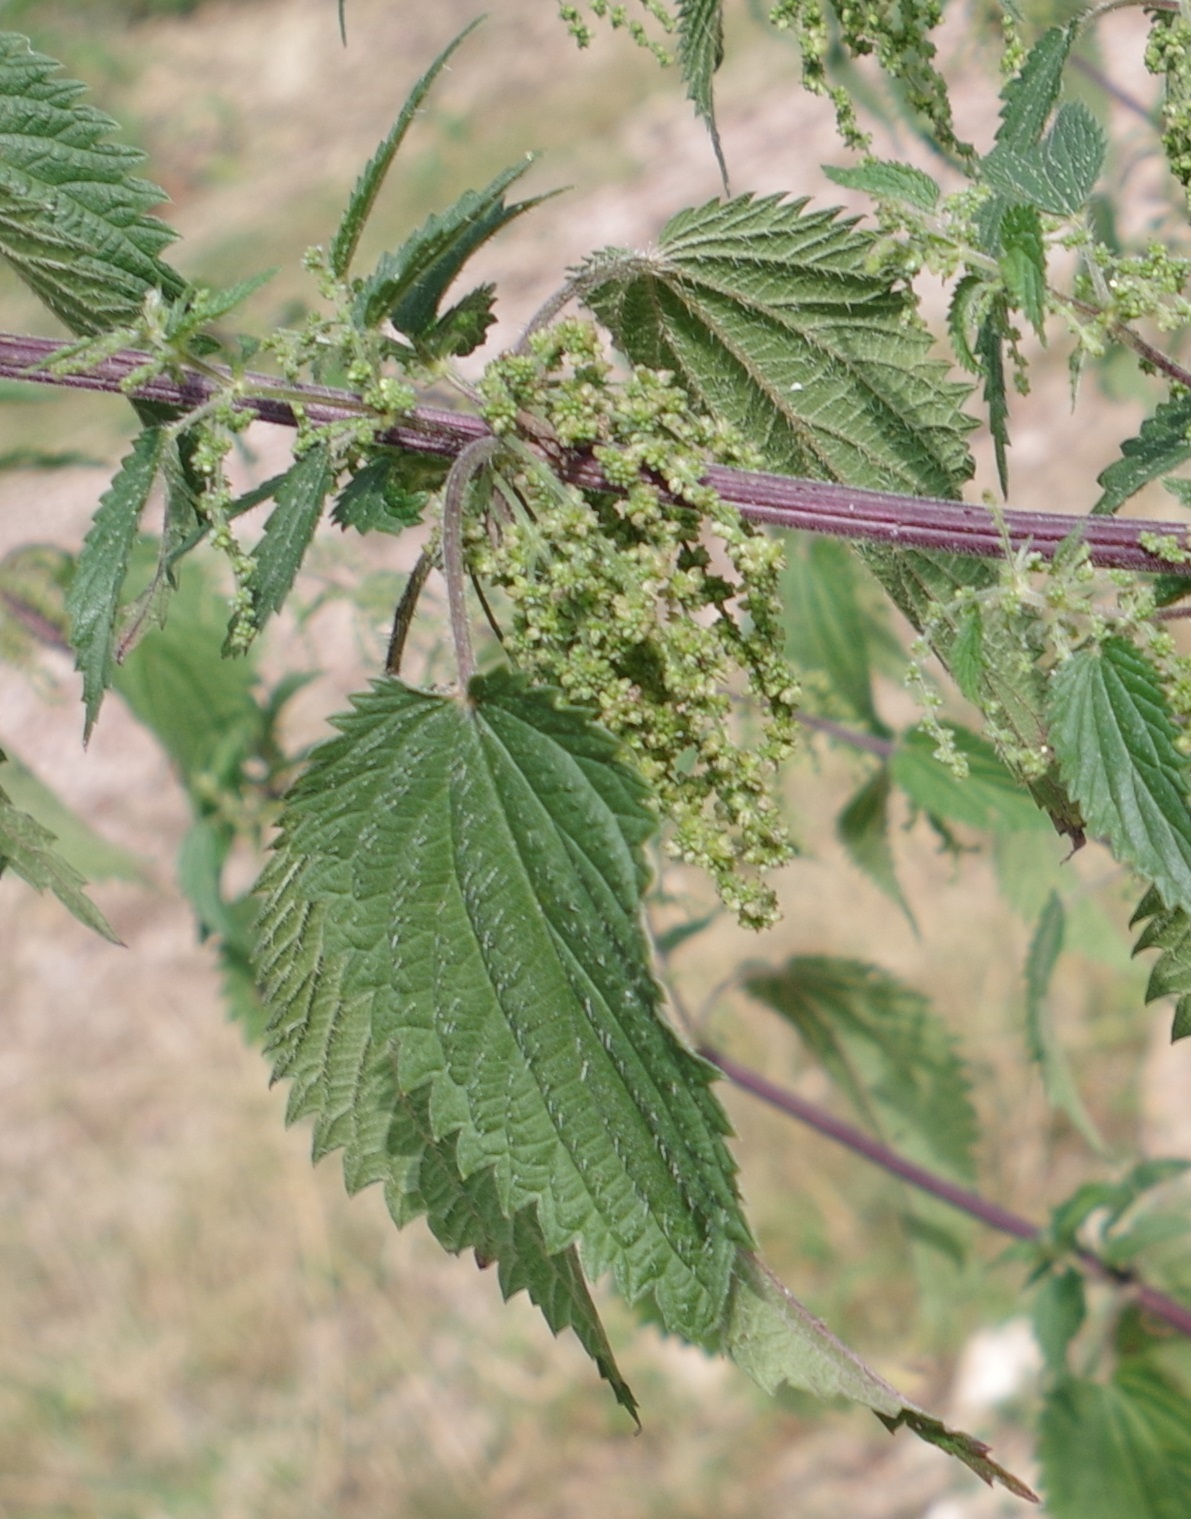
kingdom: Plantae
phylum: Tracheophyta
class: Magnoliopsida
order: Rosales
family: Urticaceae
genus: Urtica
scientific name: Urtica dioica
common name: Common nettle
